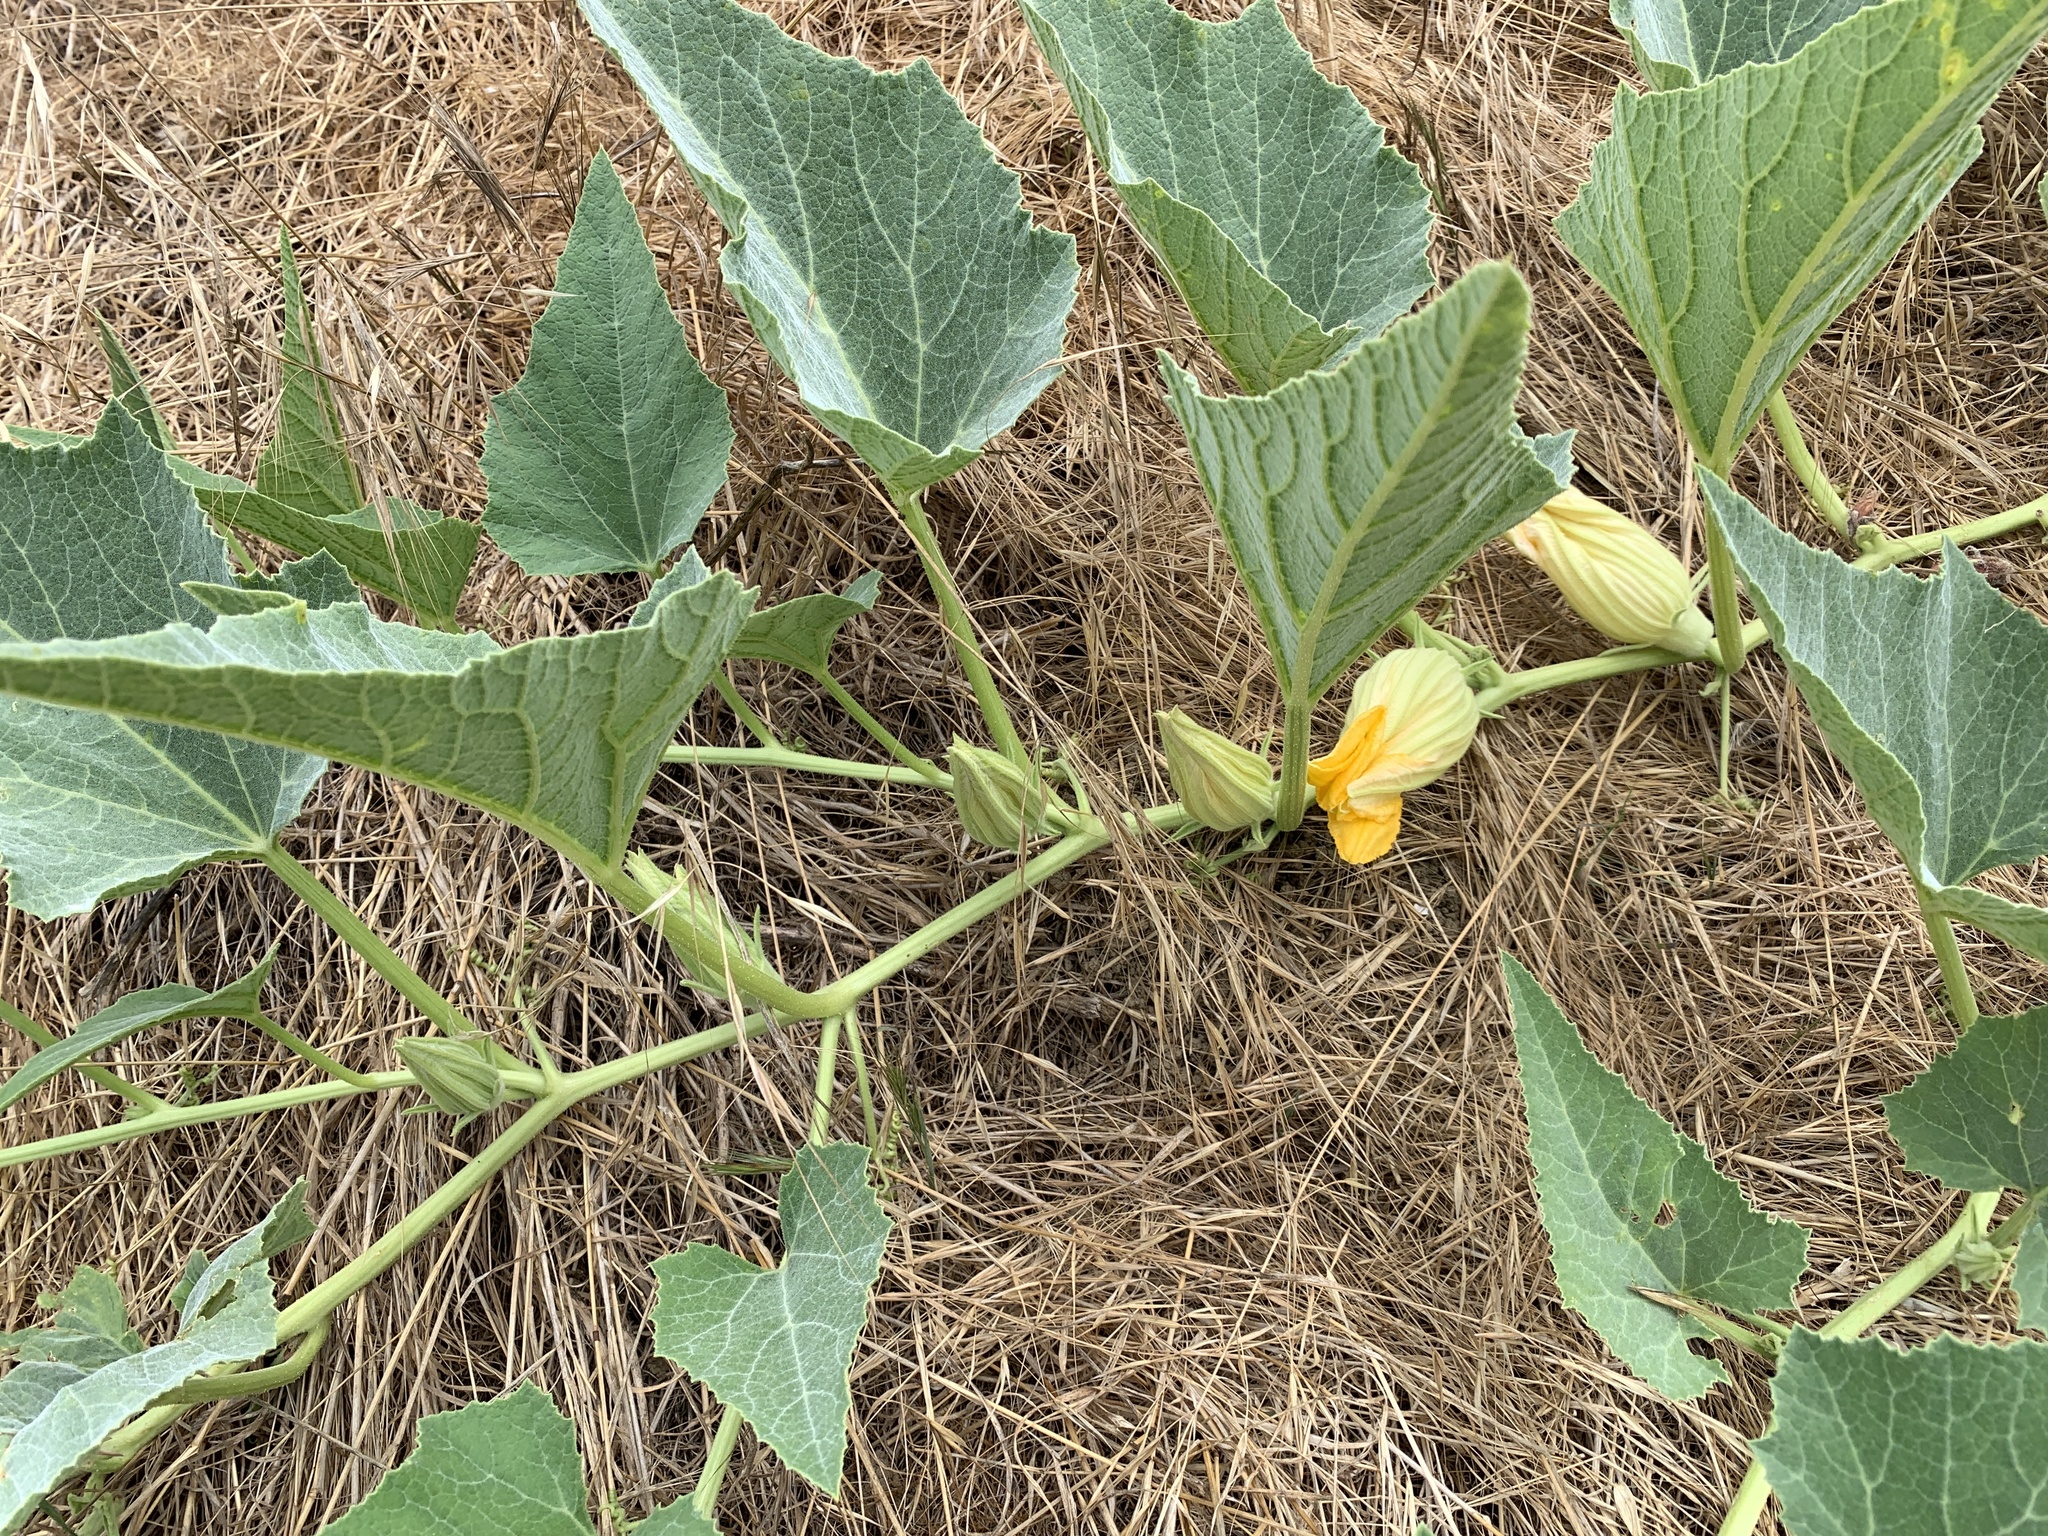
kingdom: Plantae
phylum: Tracheophyta
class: Magnoliopsida
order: Cucurbitales
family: Cucurbitaceae
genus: Cucurbita
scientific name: Cucurbita foetidissima
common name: Buffalo gourd
